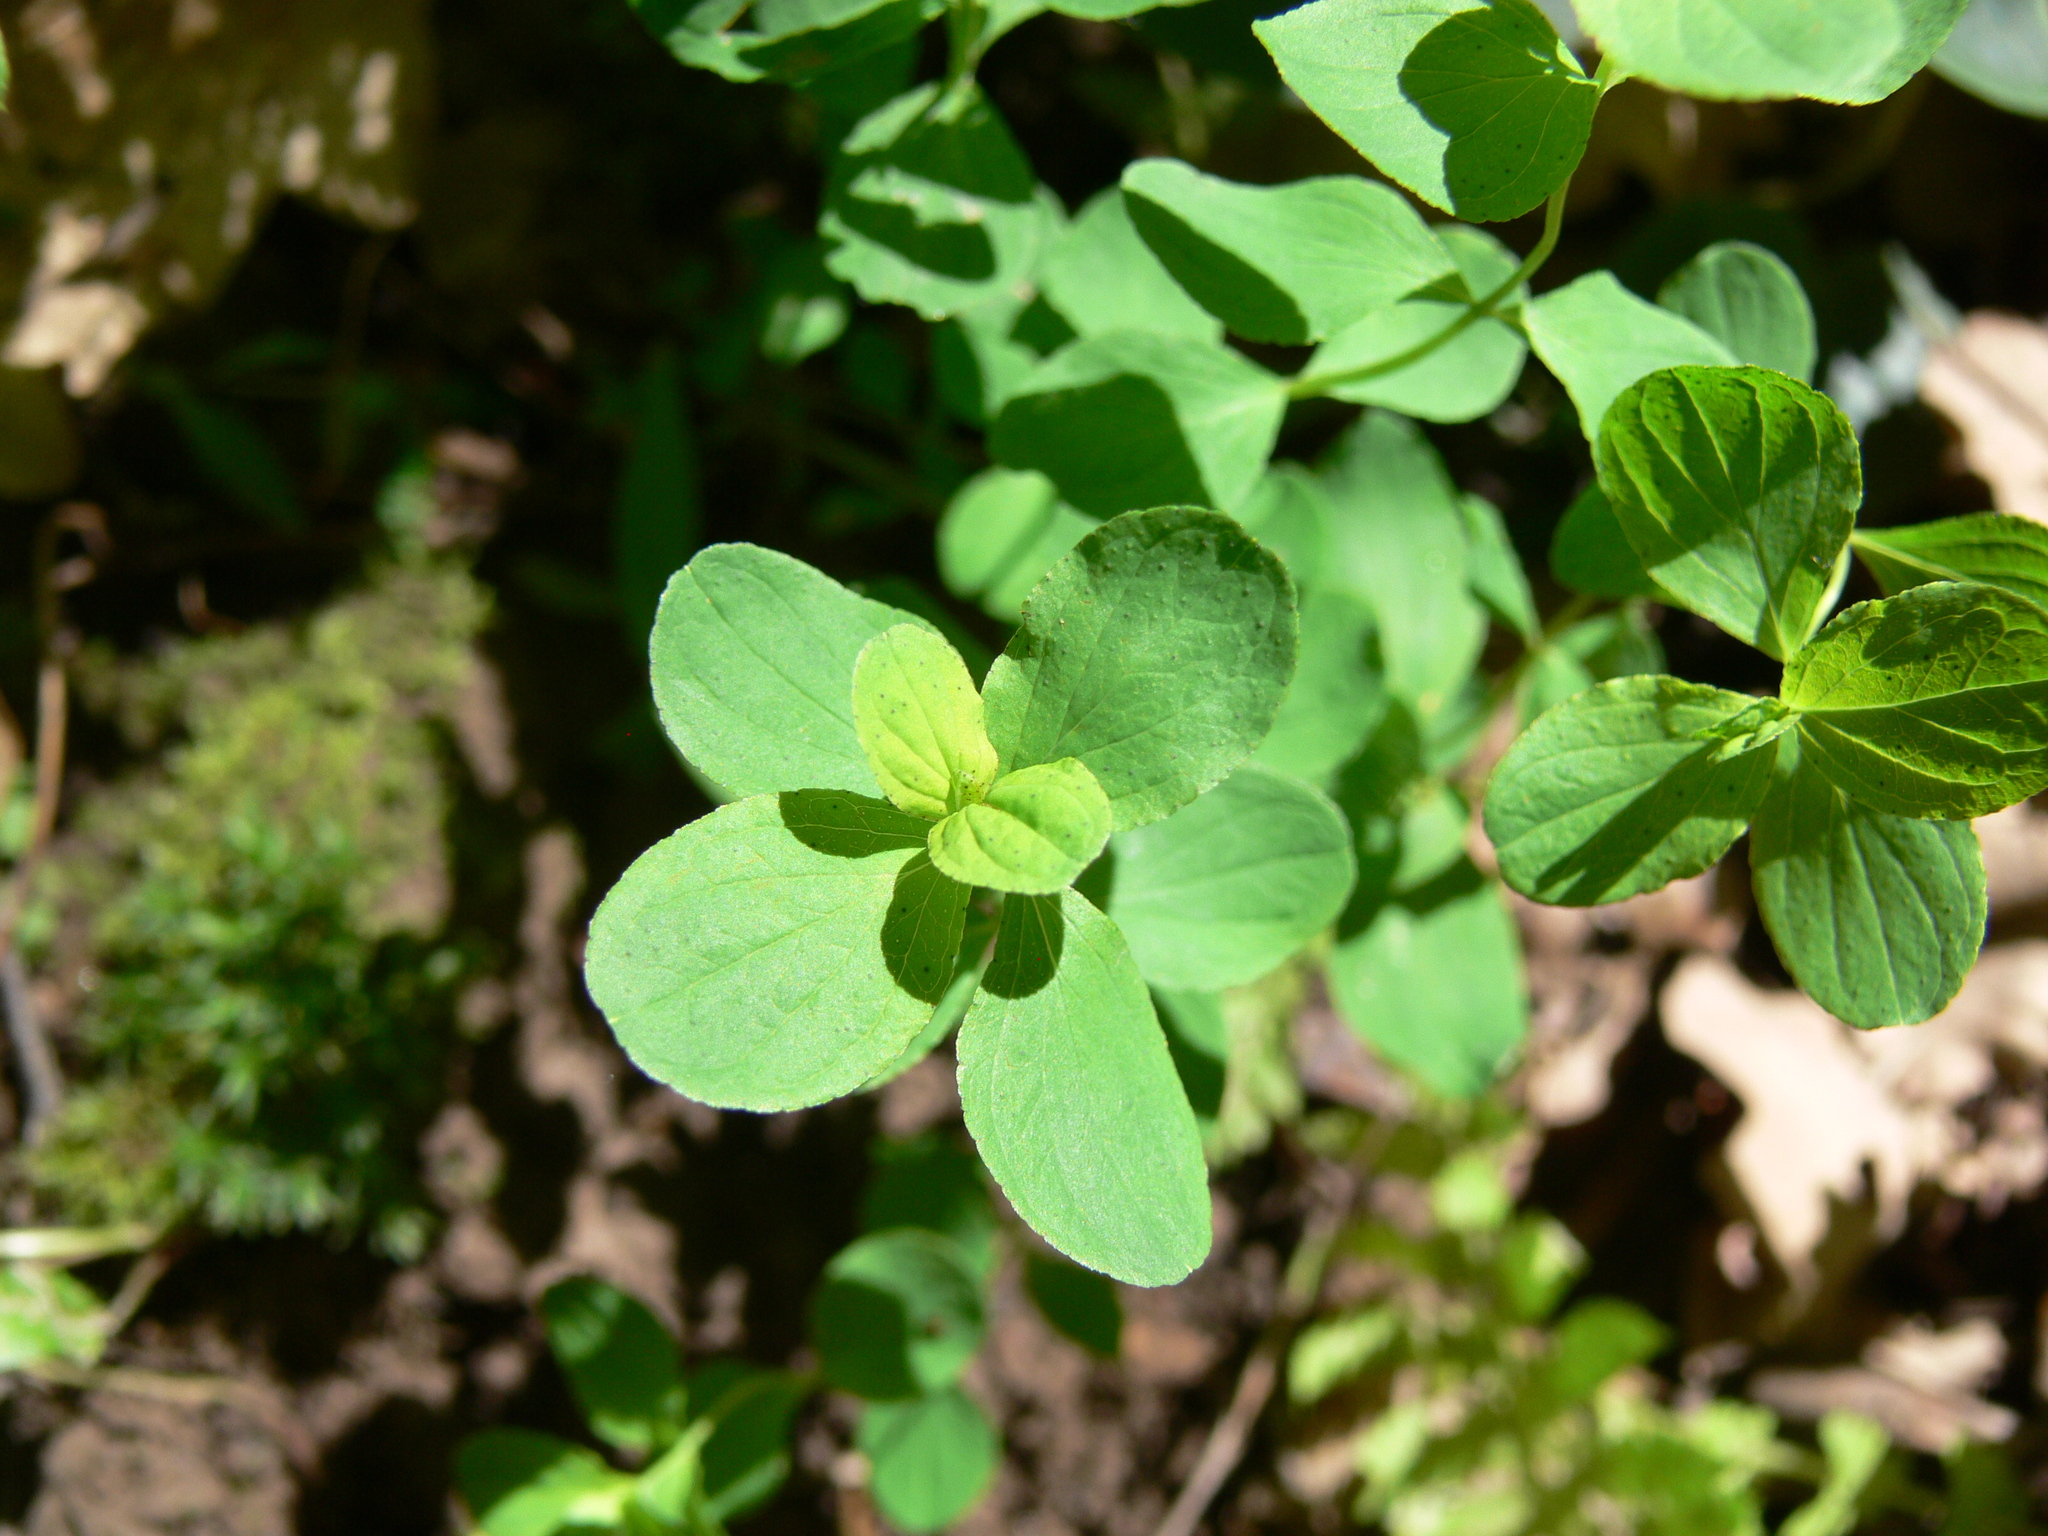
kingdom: Plantae
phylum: Tracheophyta
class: Magnoliopsida
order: Malpighiales
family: Hypericaceae
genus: Hypericum
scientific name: Hypericum maculatum
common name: Imperforate st. john's-wort
